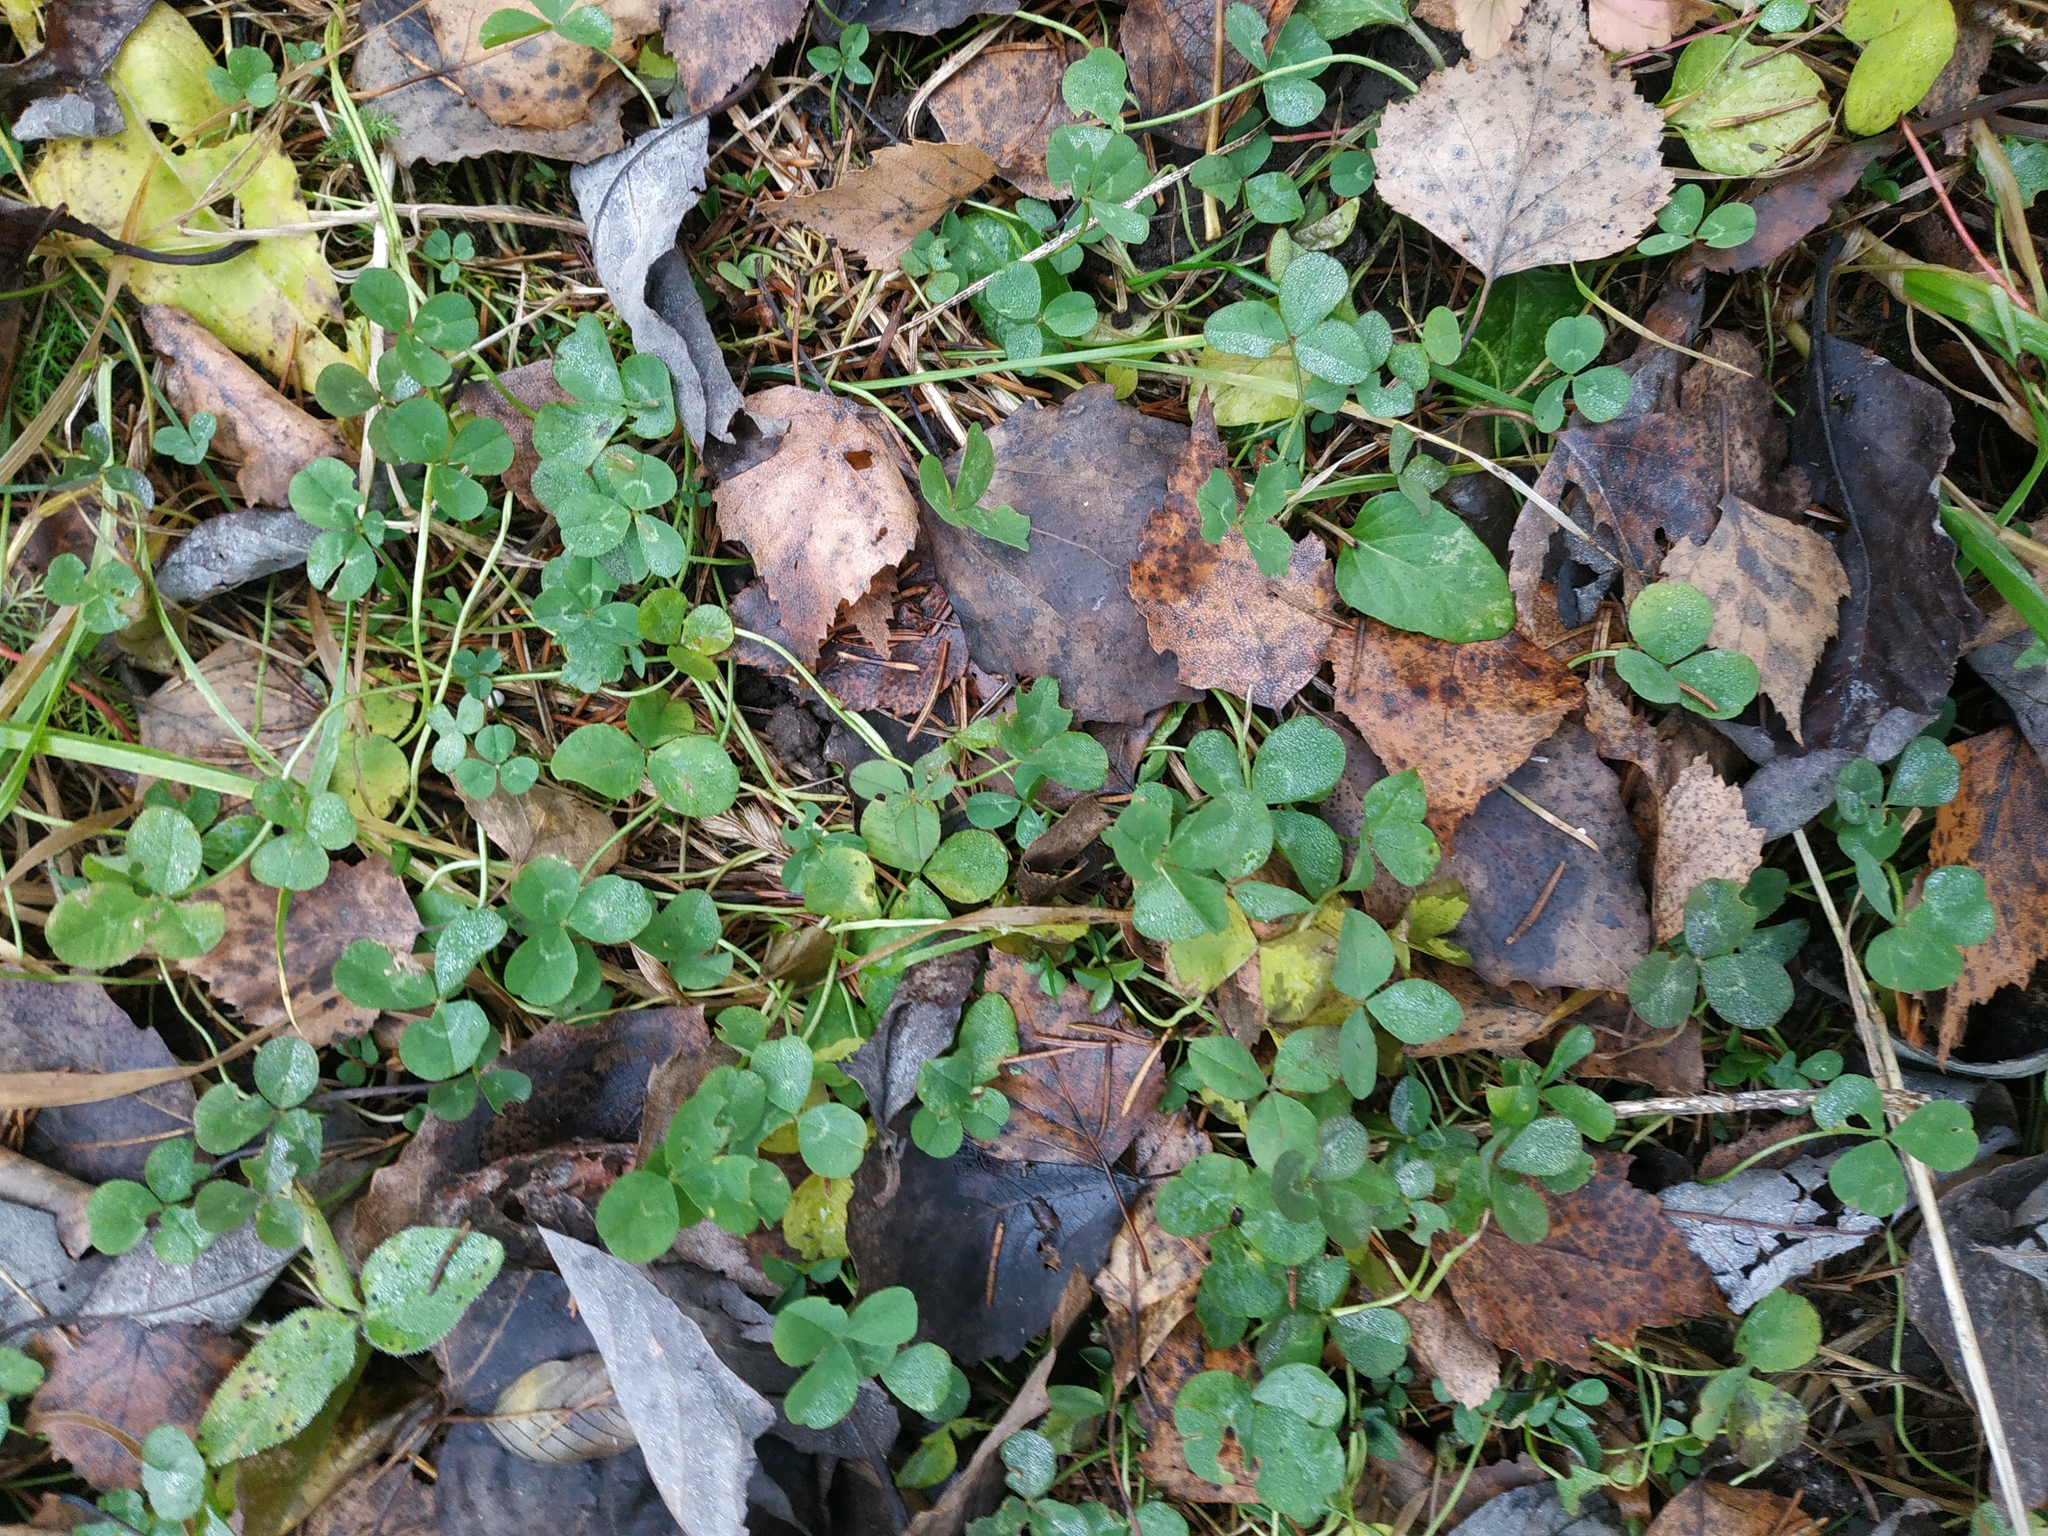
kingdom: Plantae
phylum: Tracheophyta
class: Magnoliopsida
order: Fabales
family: Fabaceae
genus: Trifolium
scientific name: Trifolium repens
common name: White clover
